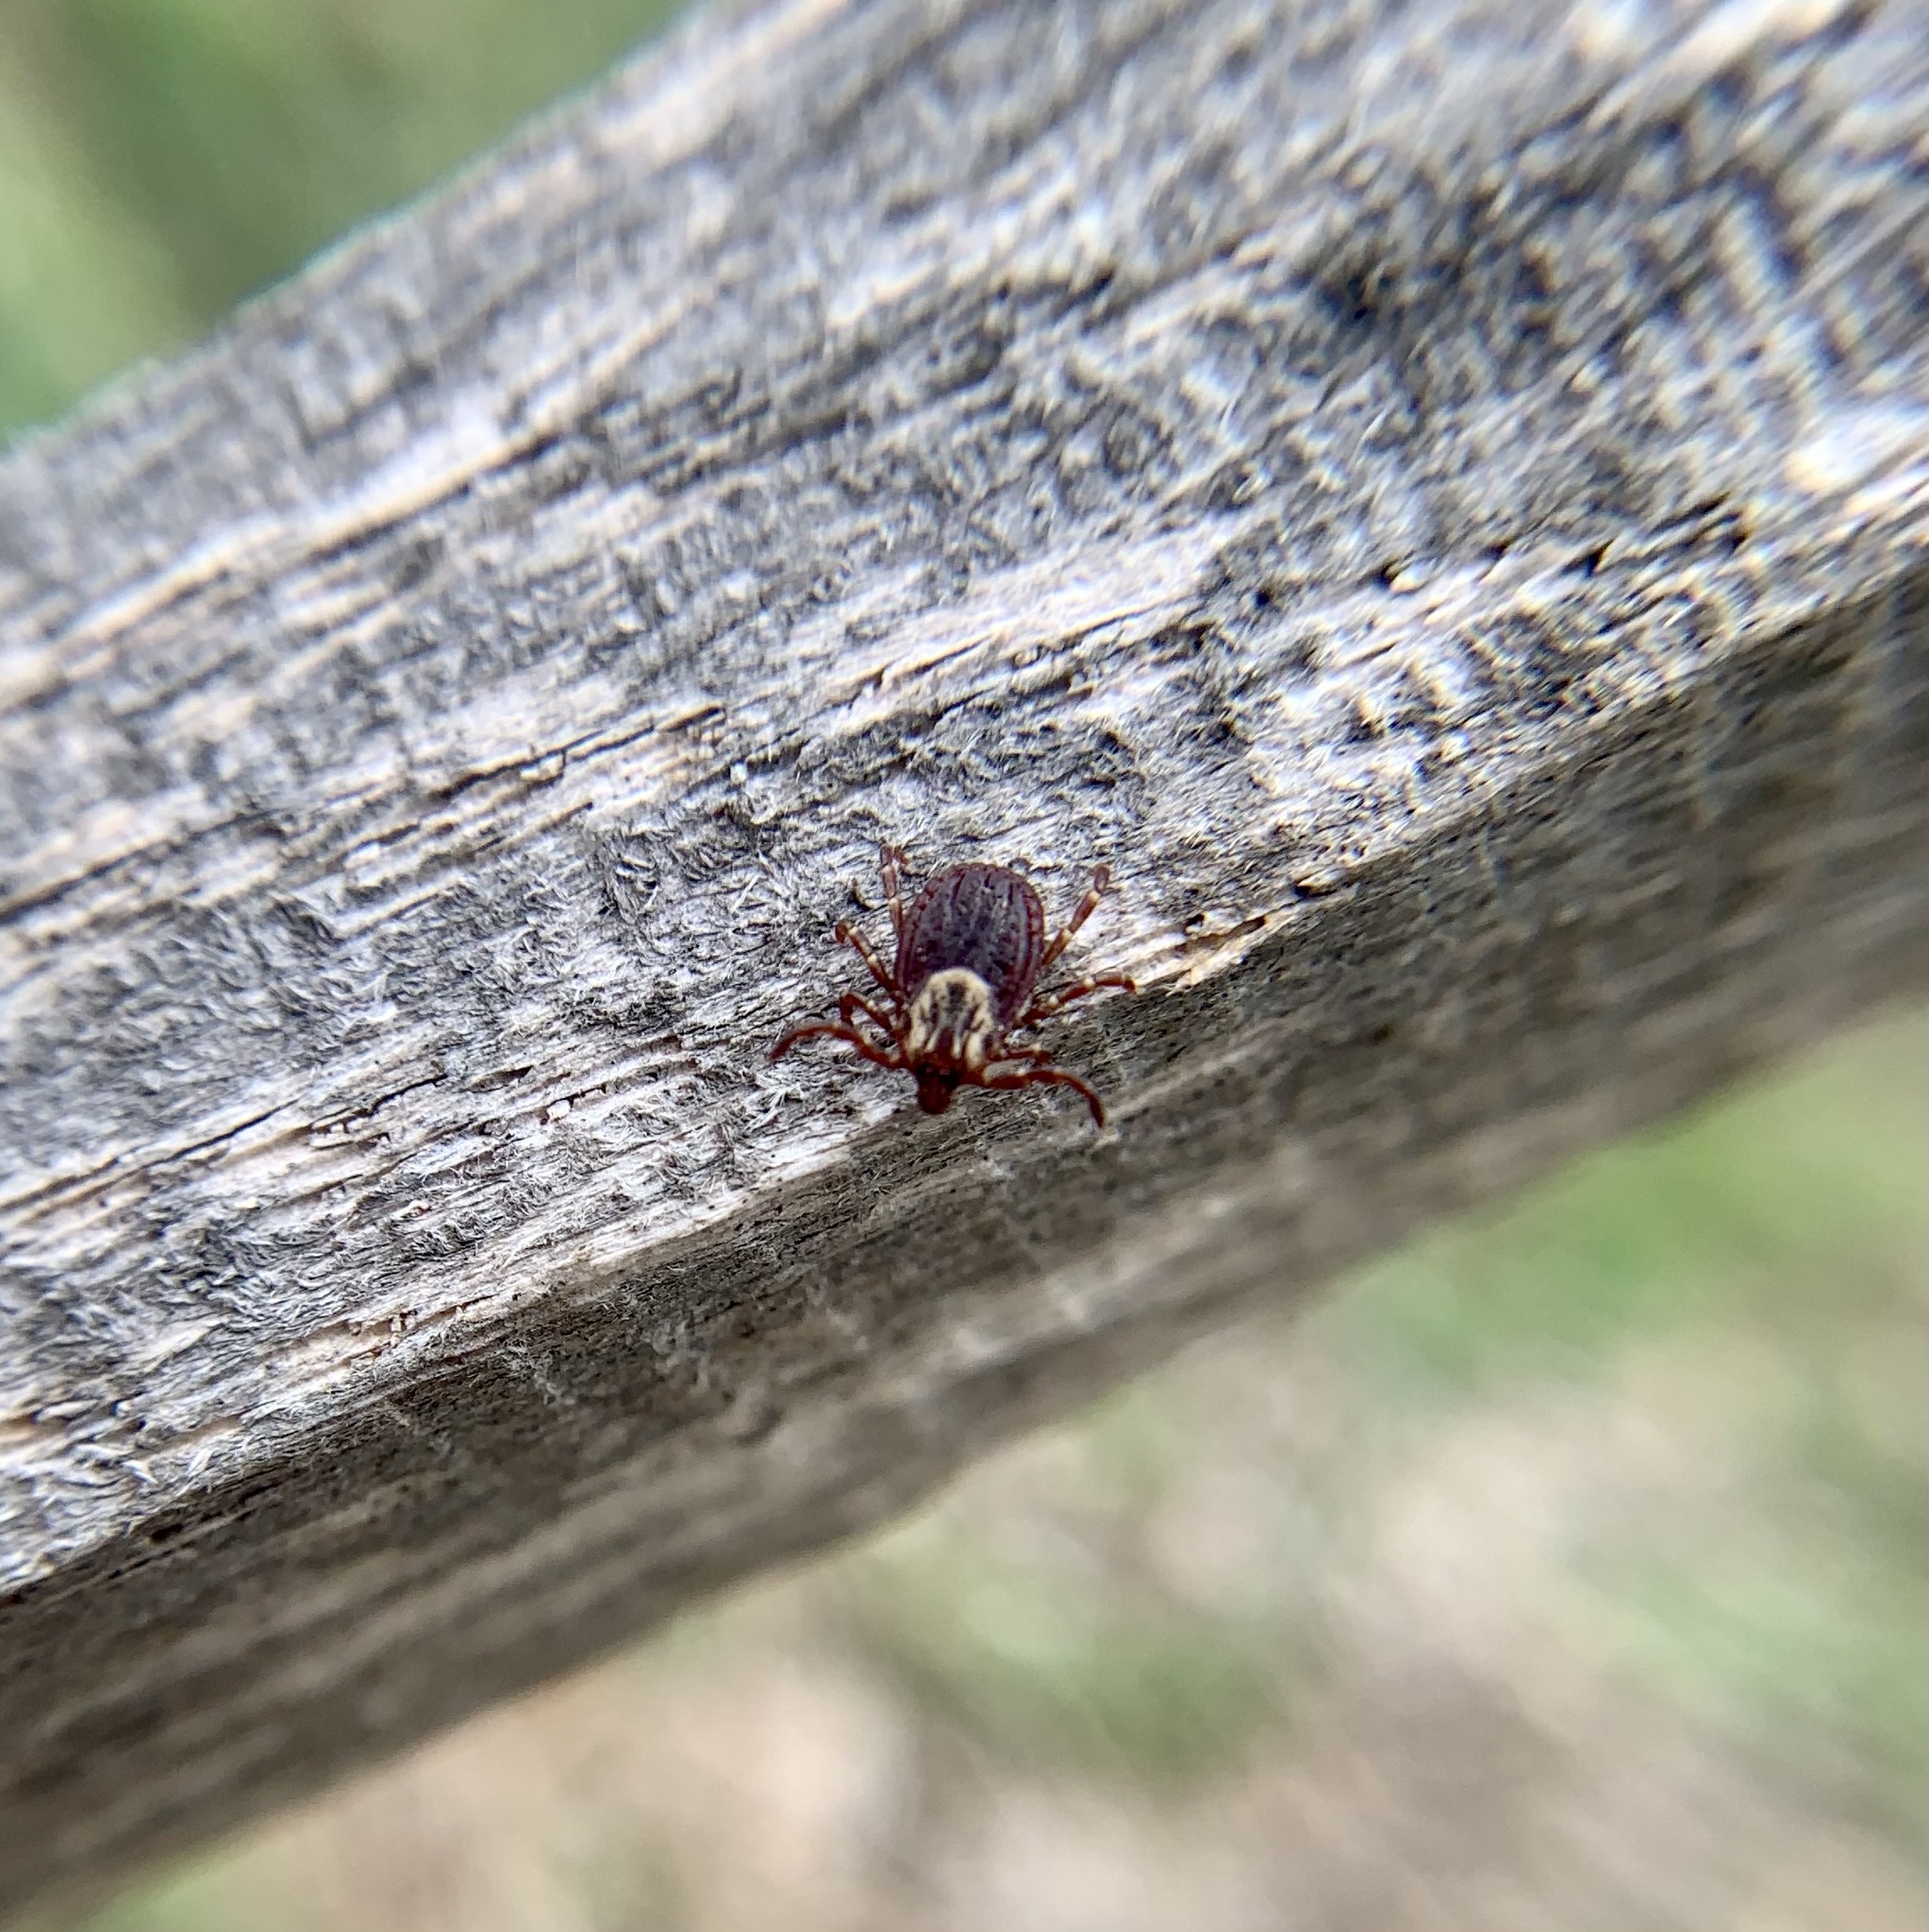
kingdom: Animalia
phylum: Arthropoda
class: Arachnida
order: Ixodida
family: Ixodidae
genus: Dermacentor
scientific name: Dermacentor variabilis
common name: American dog tick
